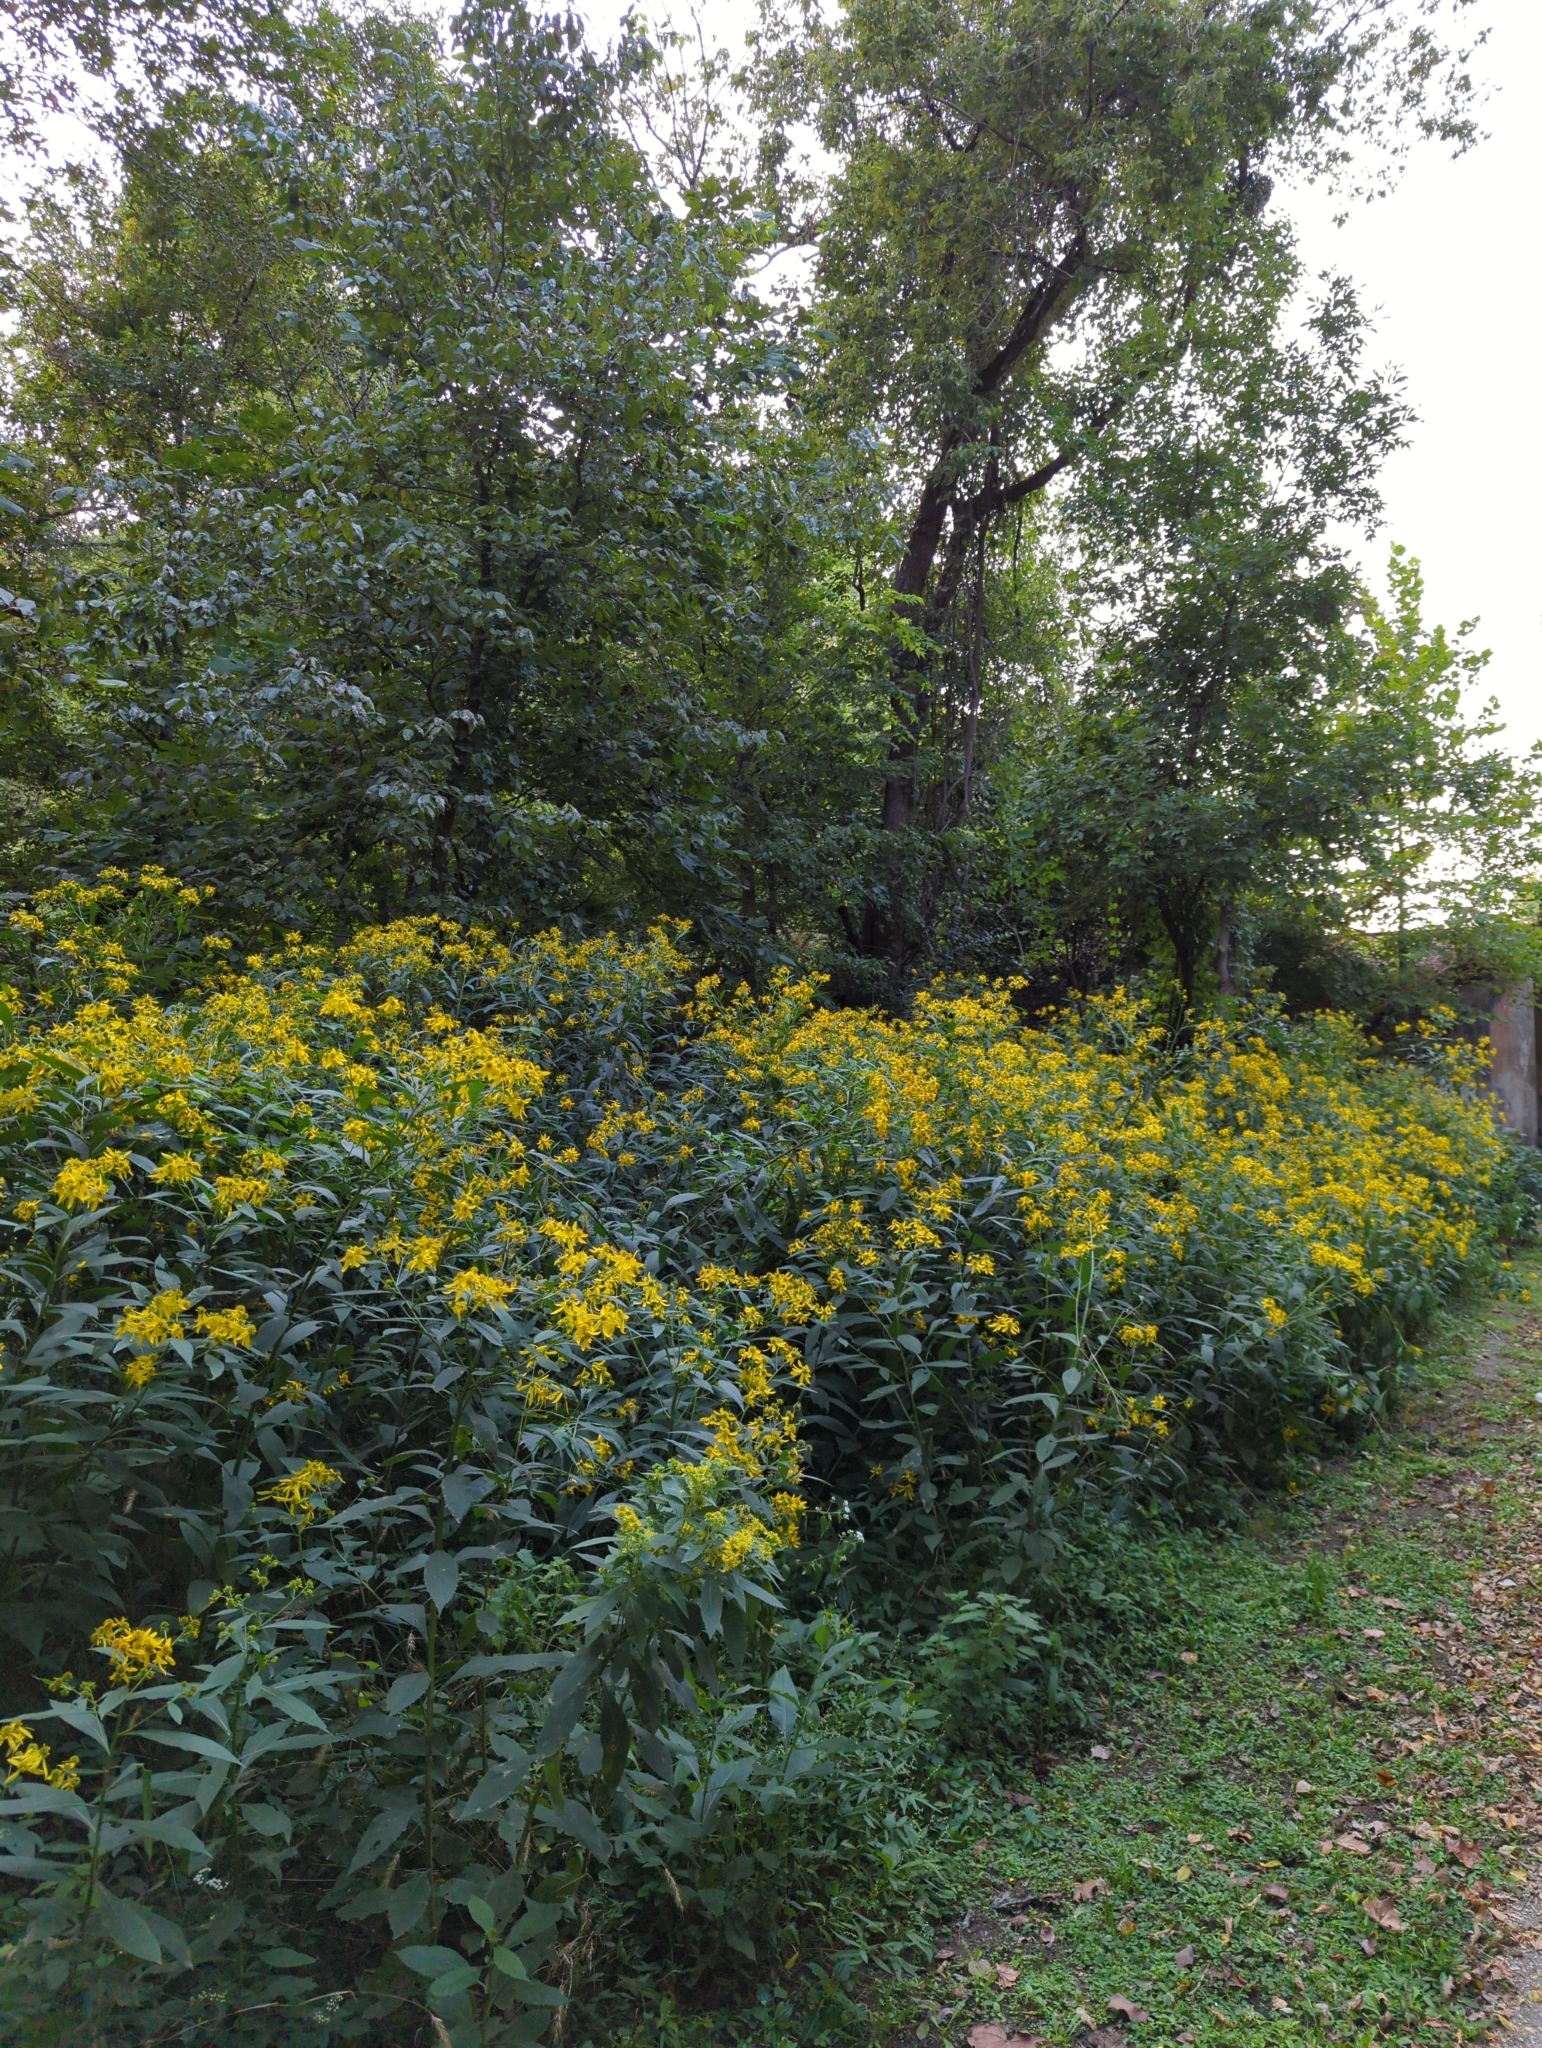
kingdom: Plantae
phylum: Tracheophyta
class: Magnoliopsida
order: Asterales
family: Asteraceae
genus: Verbesina
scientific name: Verbesina alternifolia
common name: Wingstem
